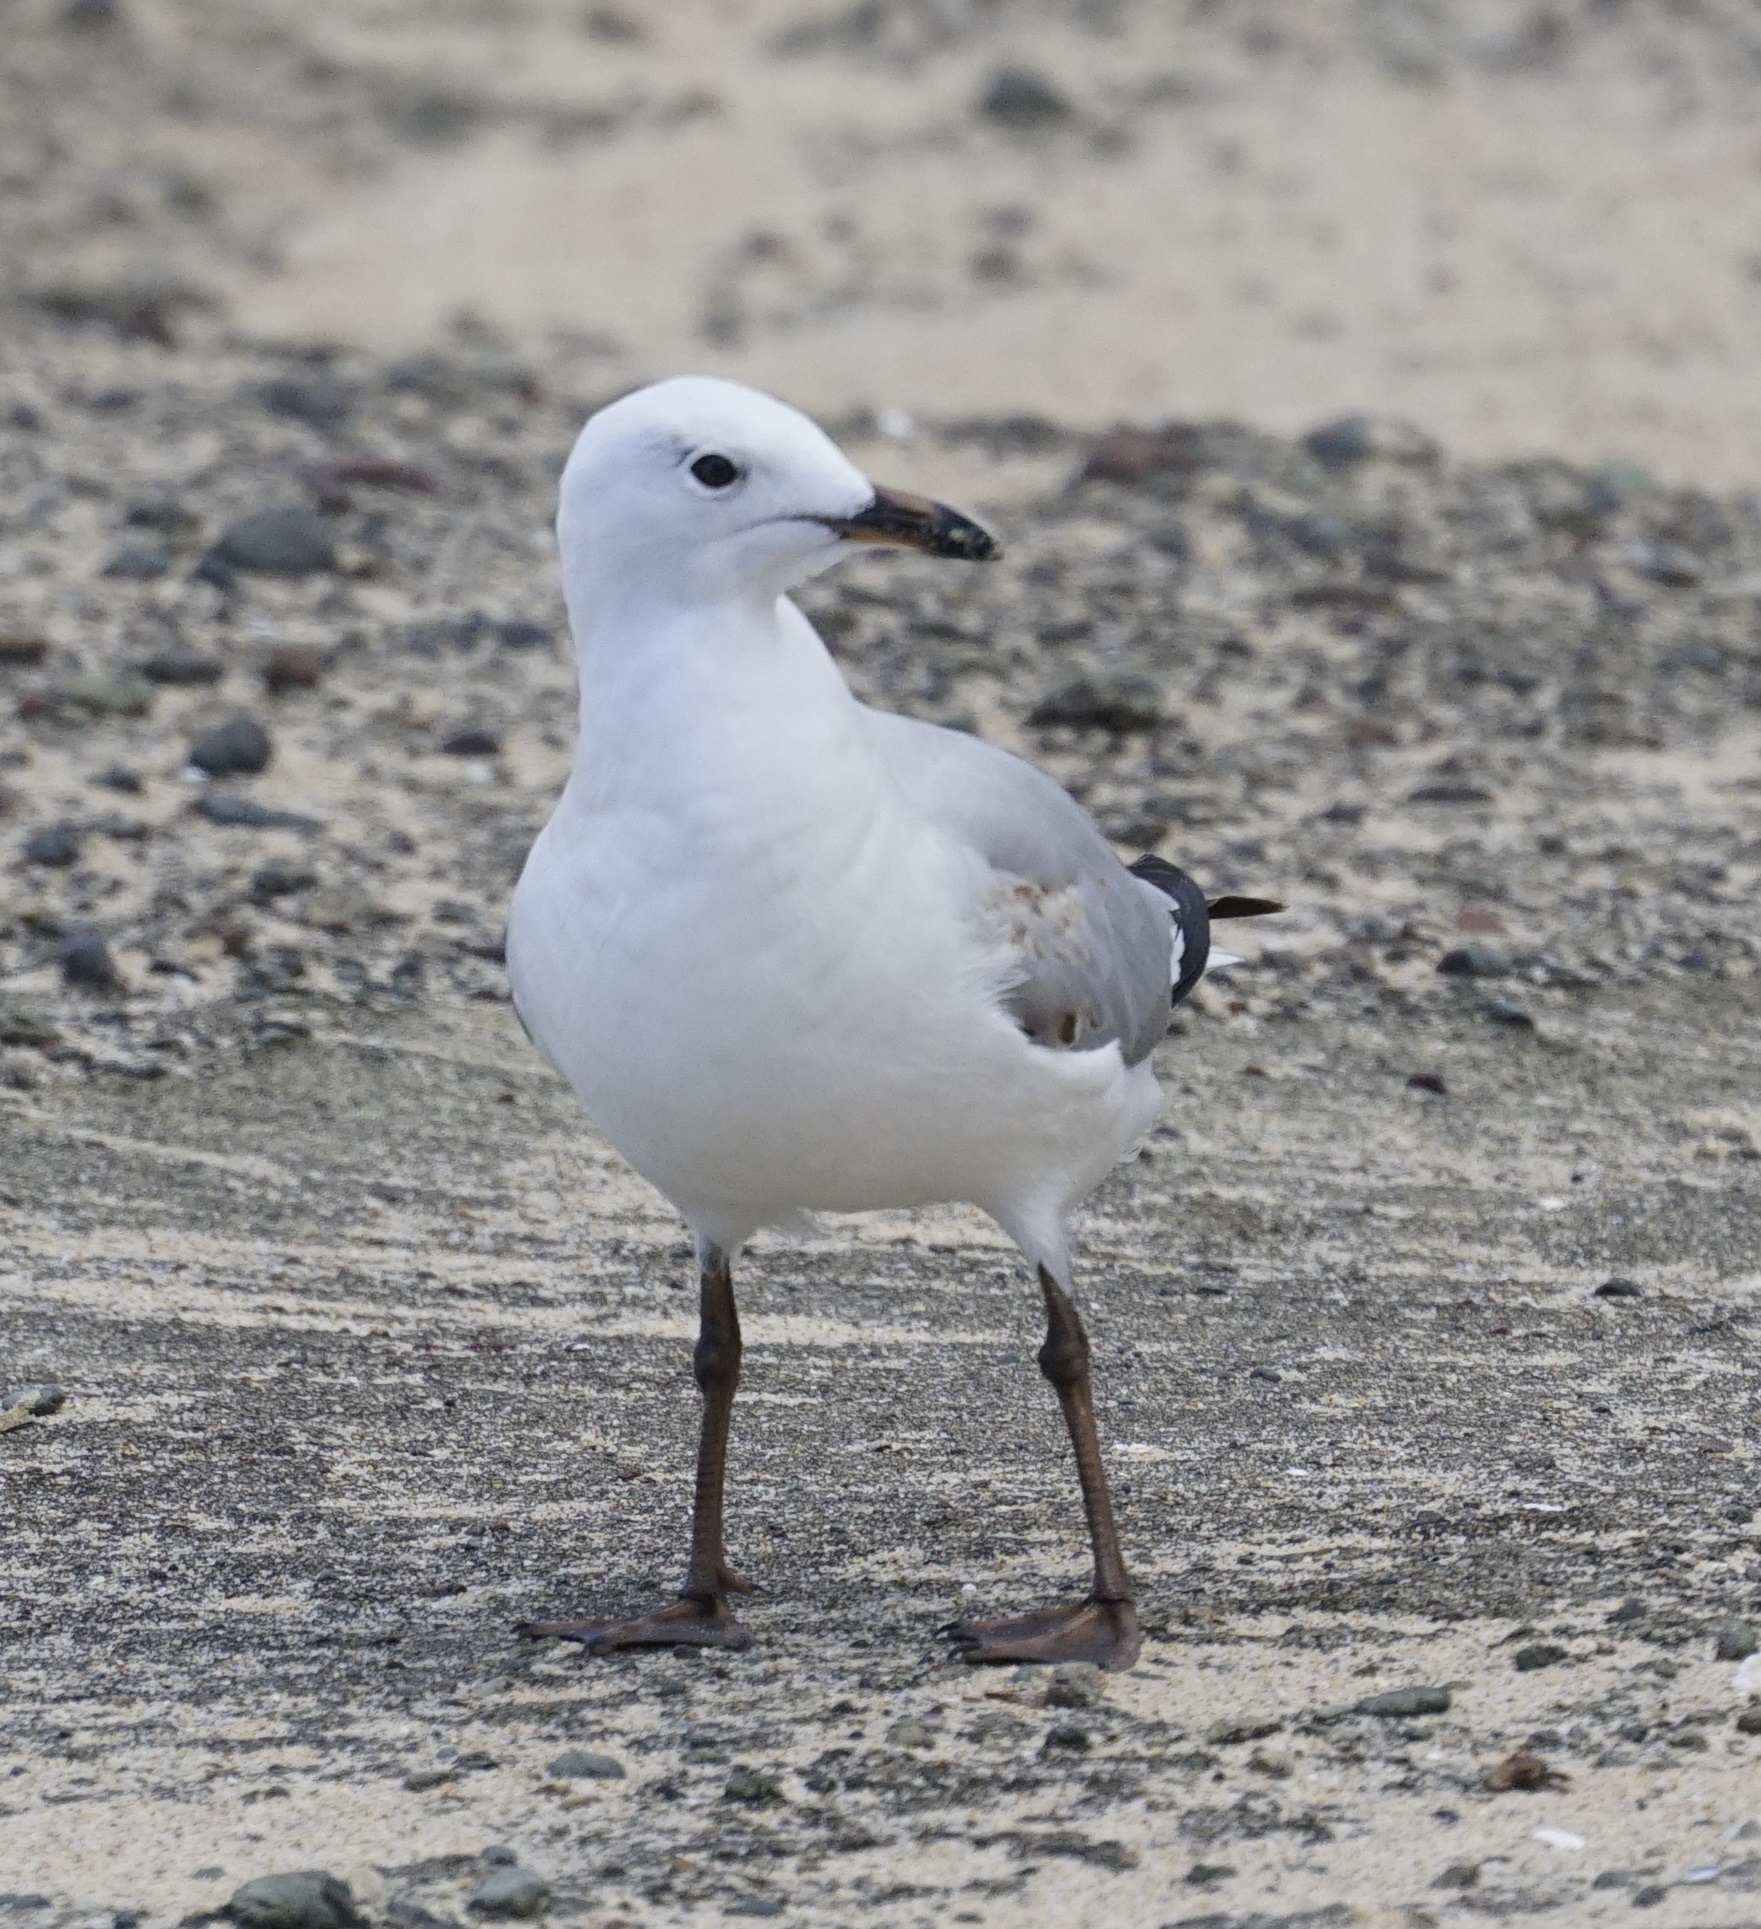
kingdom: Animalia
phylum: Chordata
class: Aves
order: Charadriiformes
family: Laridae
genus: Chroicocephalus
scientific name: Chroicocephalus novaehollandiae
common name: Silver gull
